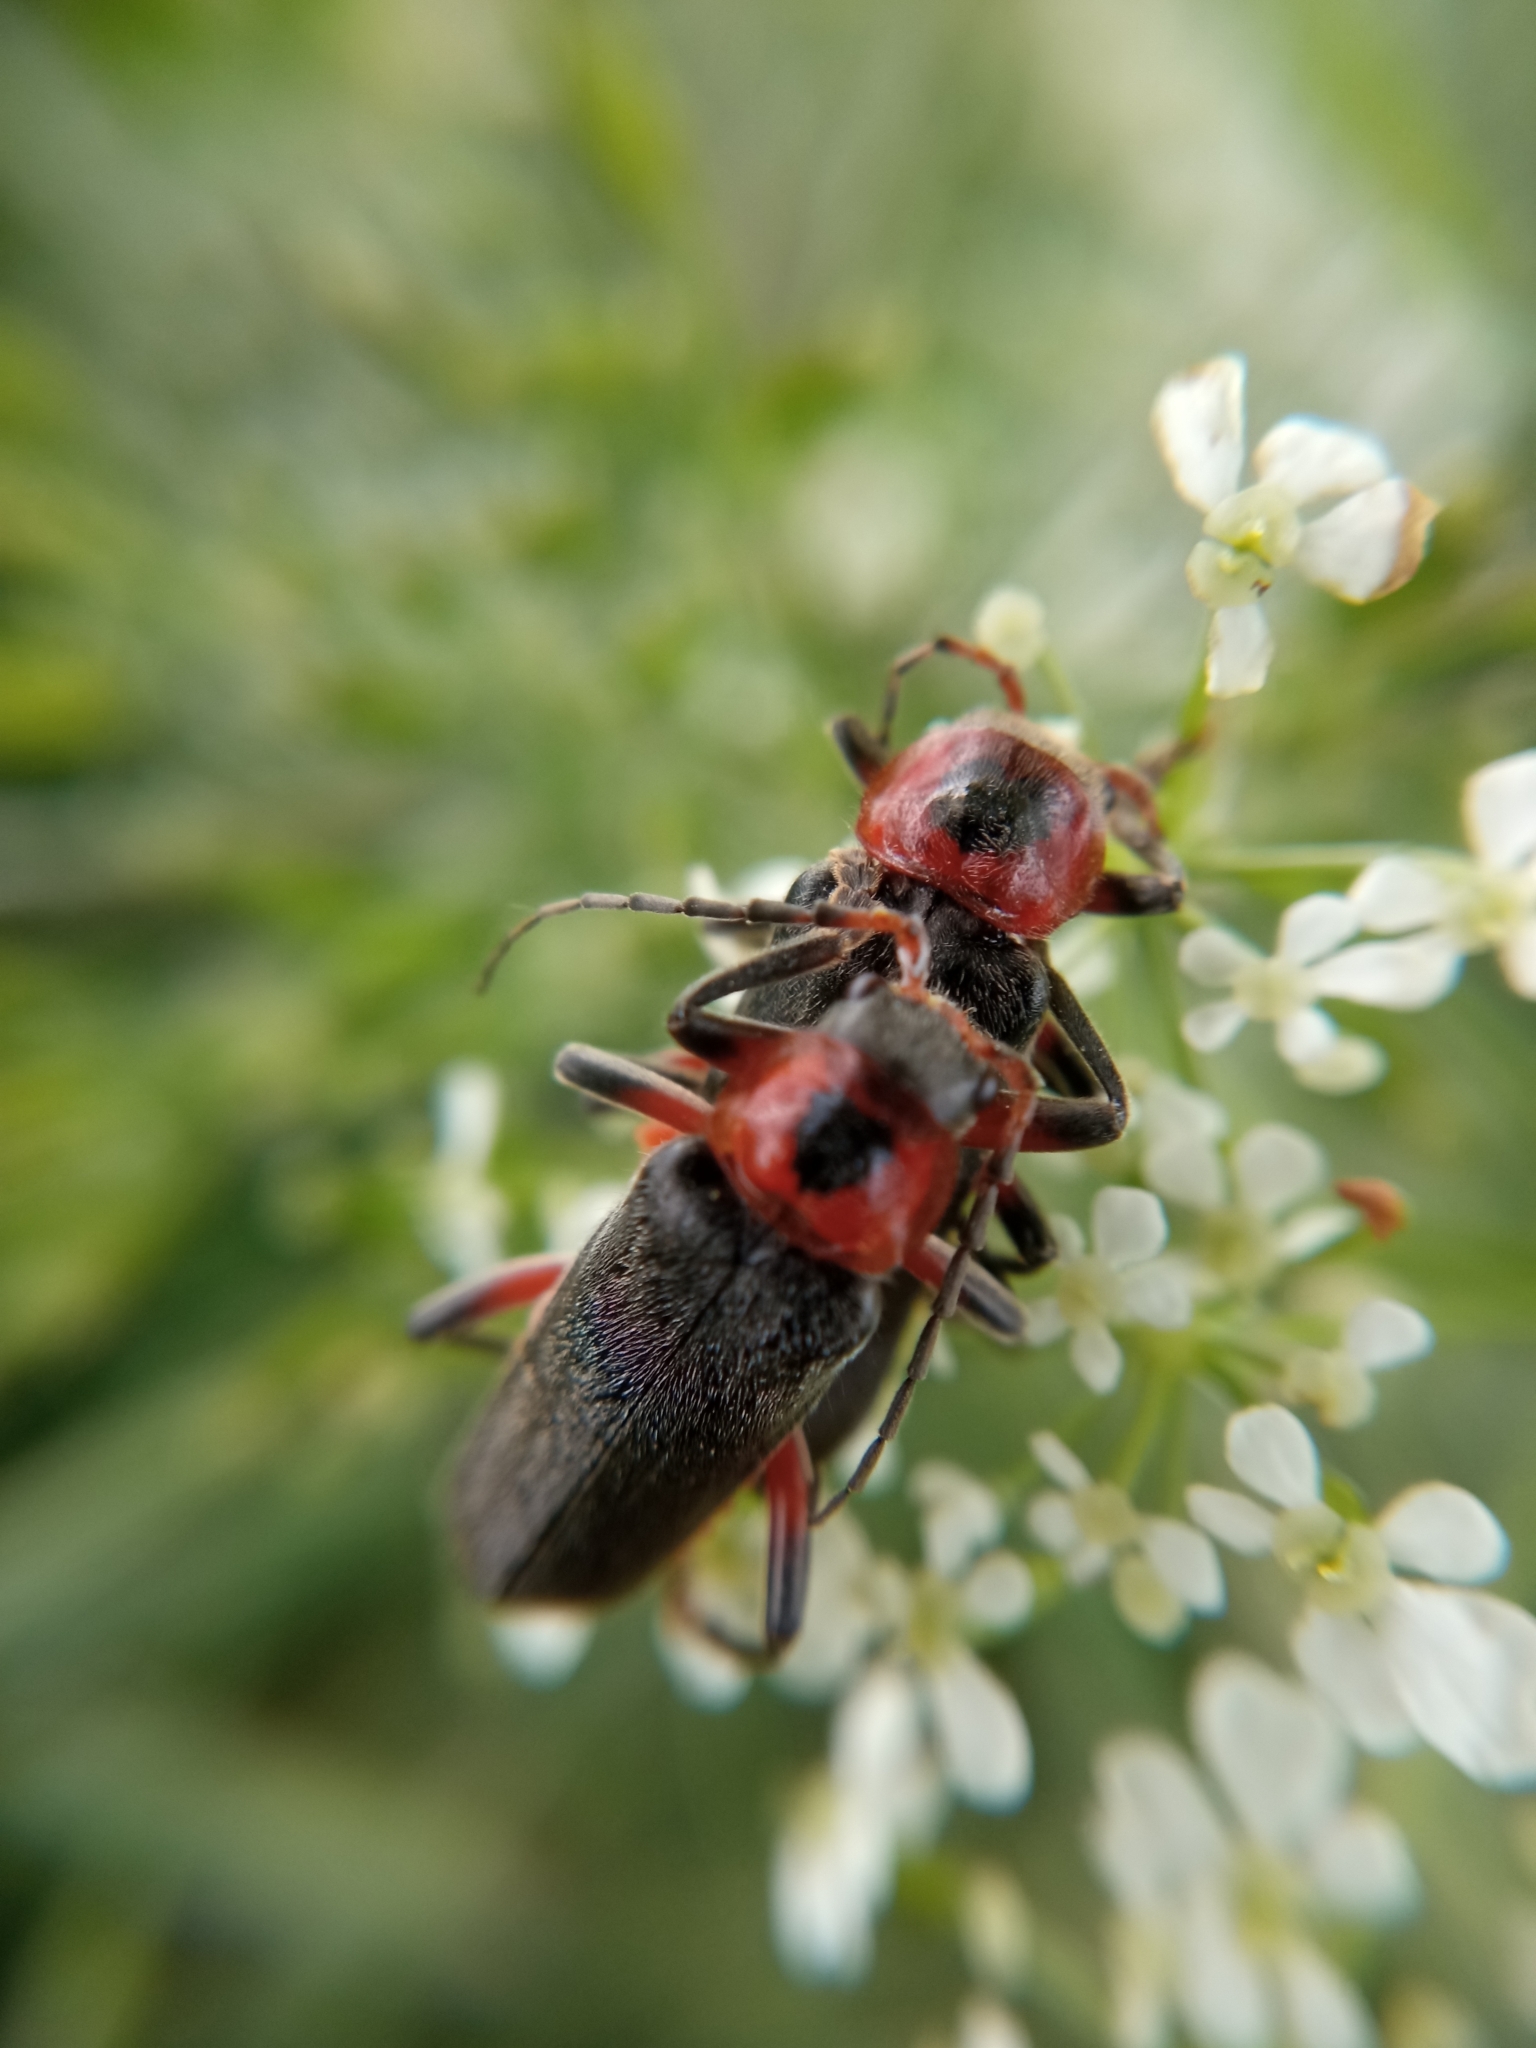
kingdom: Animalia
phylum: Arthropoda
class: Insecta
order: Coleoptera
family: Cantharidae
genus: Cantharis
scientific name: Cantharis rustica
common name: Soldier beetle
